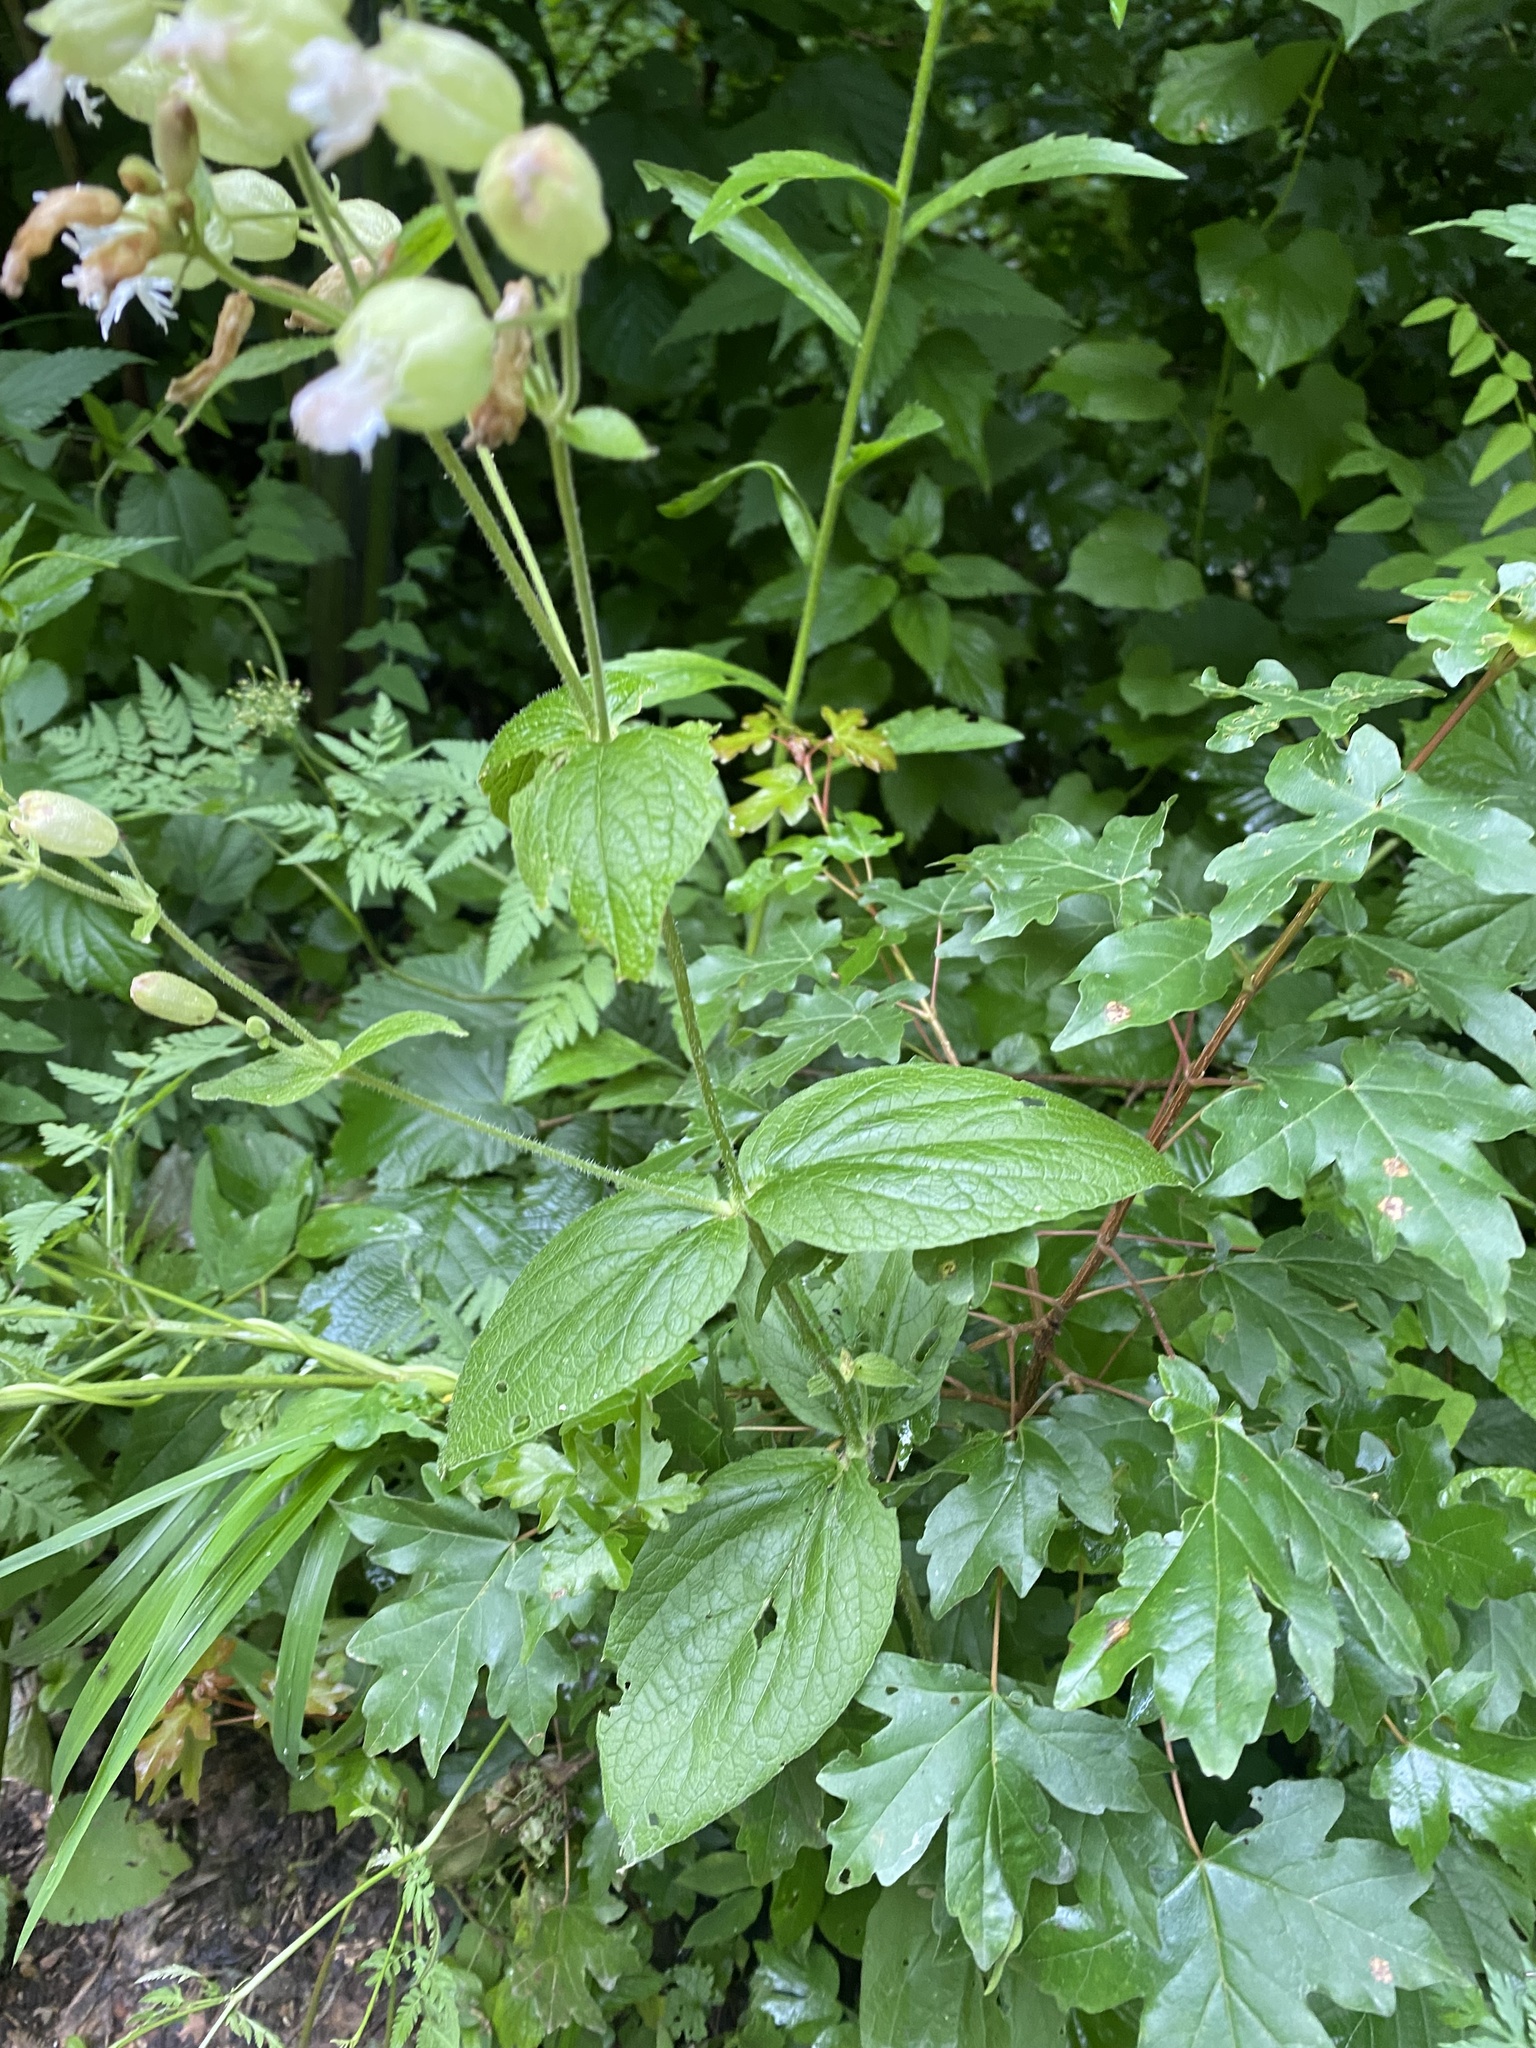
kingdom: Plantae
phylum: Tracheophyta
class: Magnoliopsida
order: Caryophyllales
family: Caryophyllaceae
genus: Silene
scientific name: Silene
